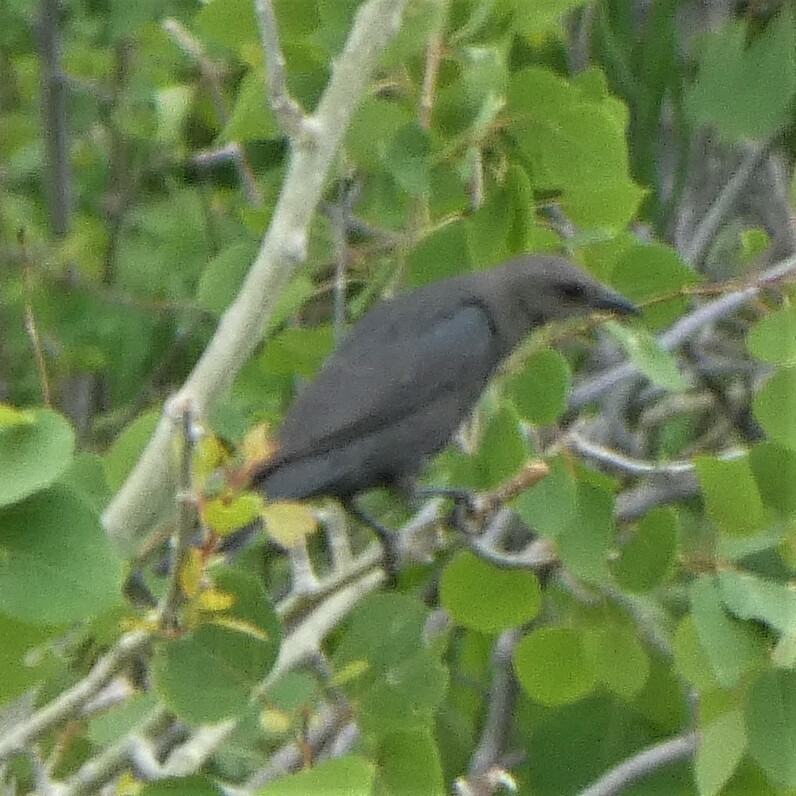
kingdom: Animalia
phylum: Chordata
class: Aves
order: Passeriformes
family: Icteridae
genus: Euphagus
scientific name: Euphagus cyanocephalus
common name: Brewer's blackbird
